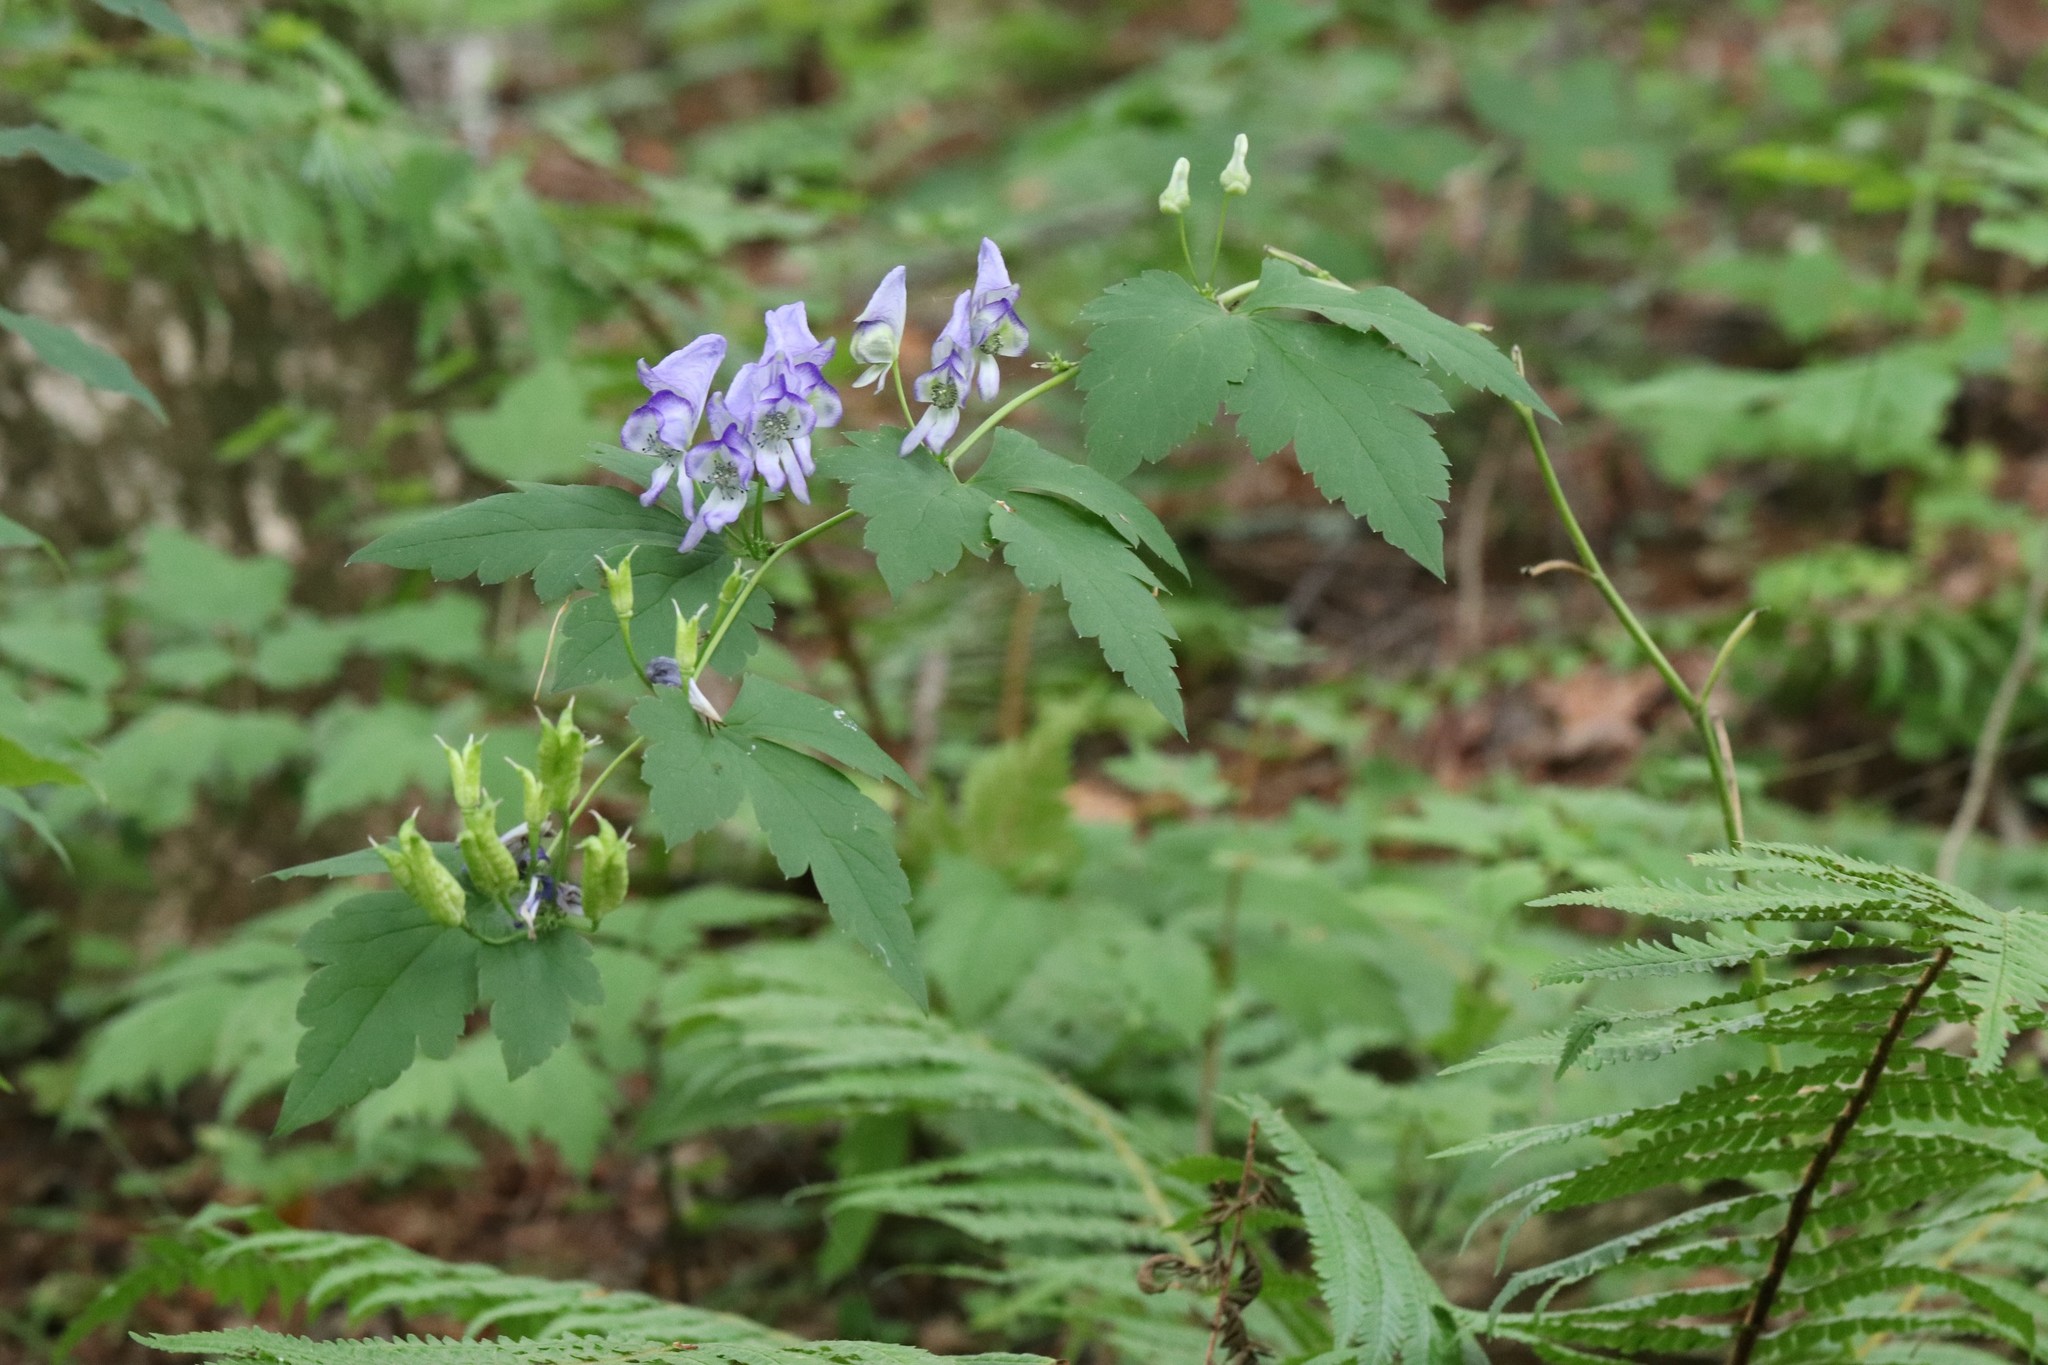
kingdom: Plantae
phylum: Tracheophyta
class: Magnoliopsida
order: Ranunculales
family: Ranunculaceae
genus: Aconitum
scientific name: Aconitum sczukinii
